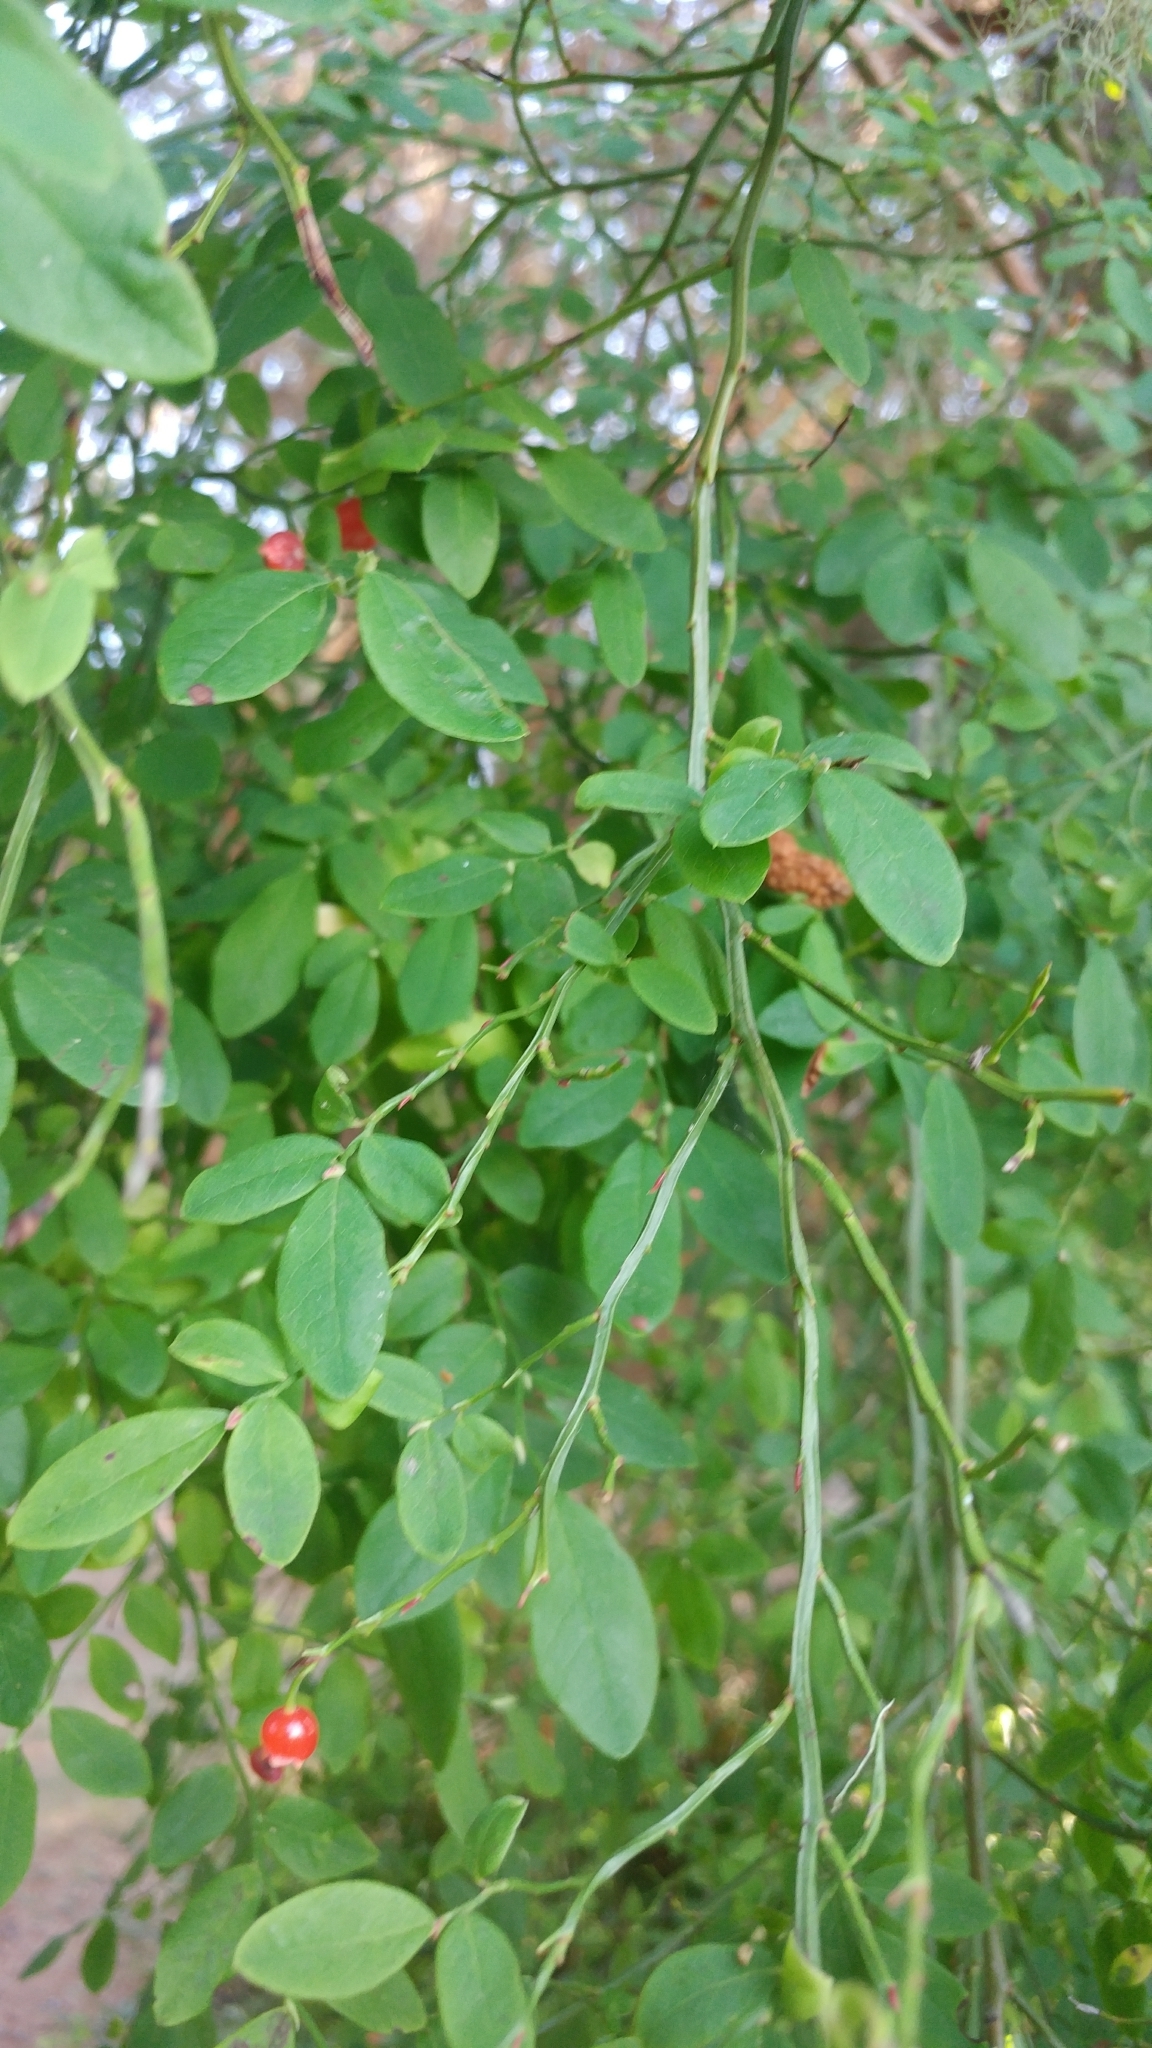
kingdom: Plantae
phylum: Tracheophyta
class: Magnoliopsida
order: Ericales
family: Ericaceae
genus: Vaccinium
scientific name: Vaccinium parvifolium
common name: Red-huckleberry
